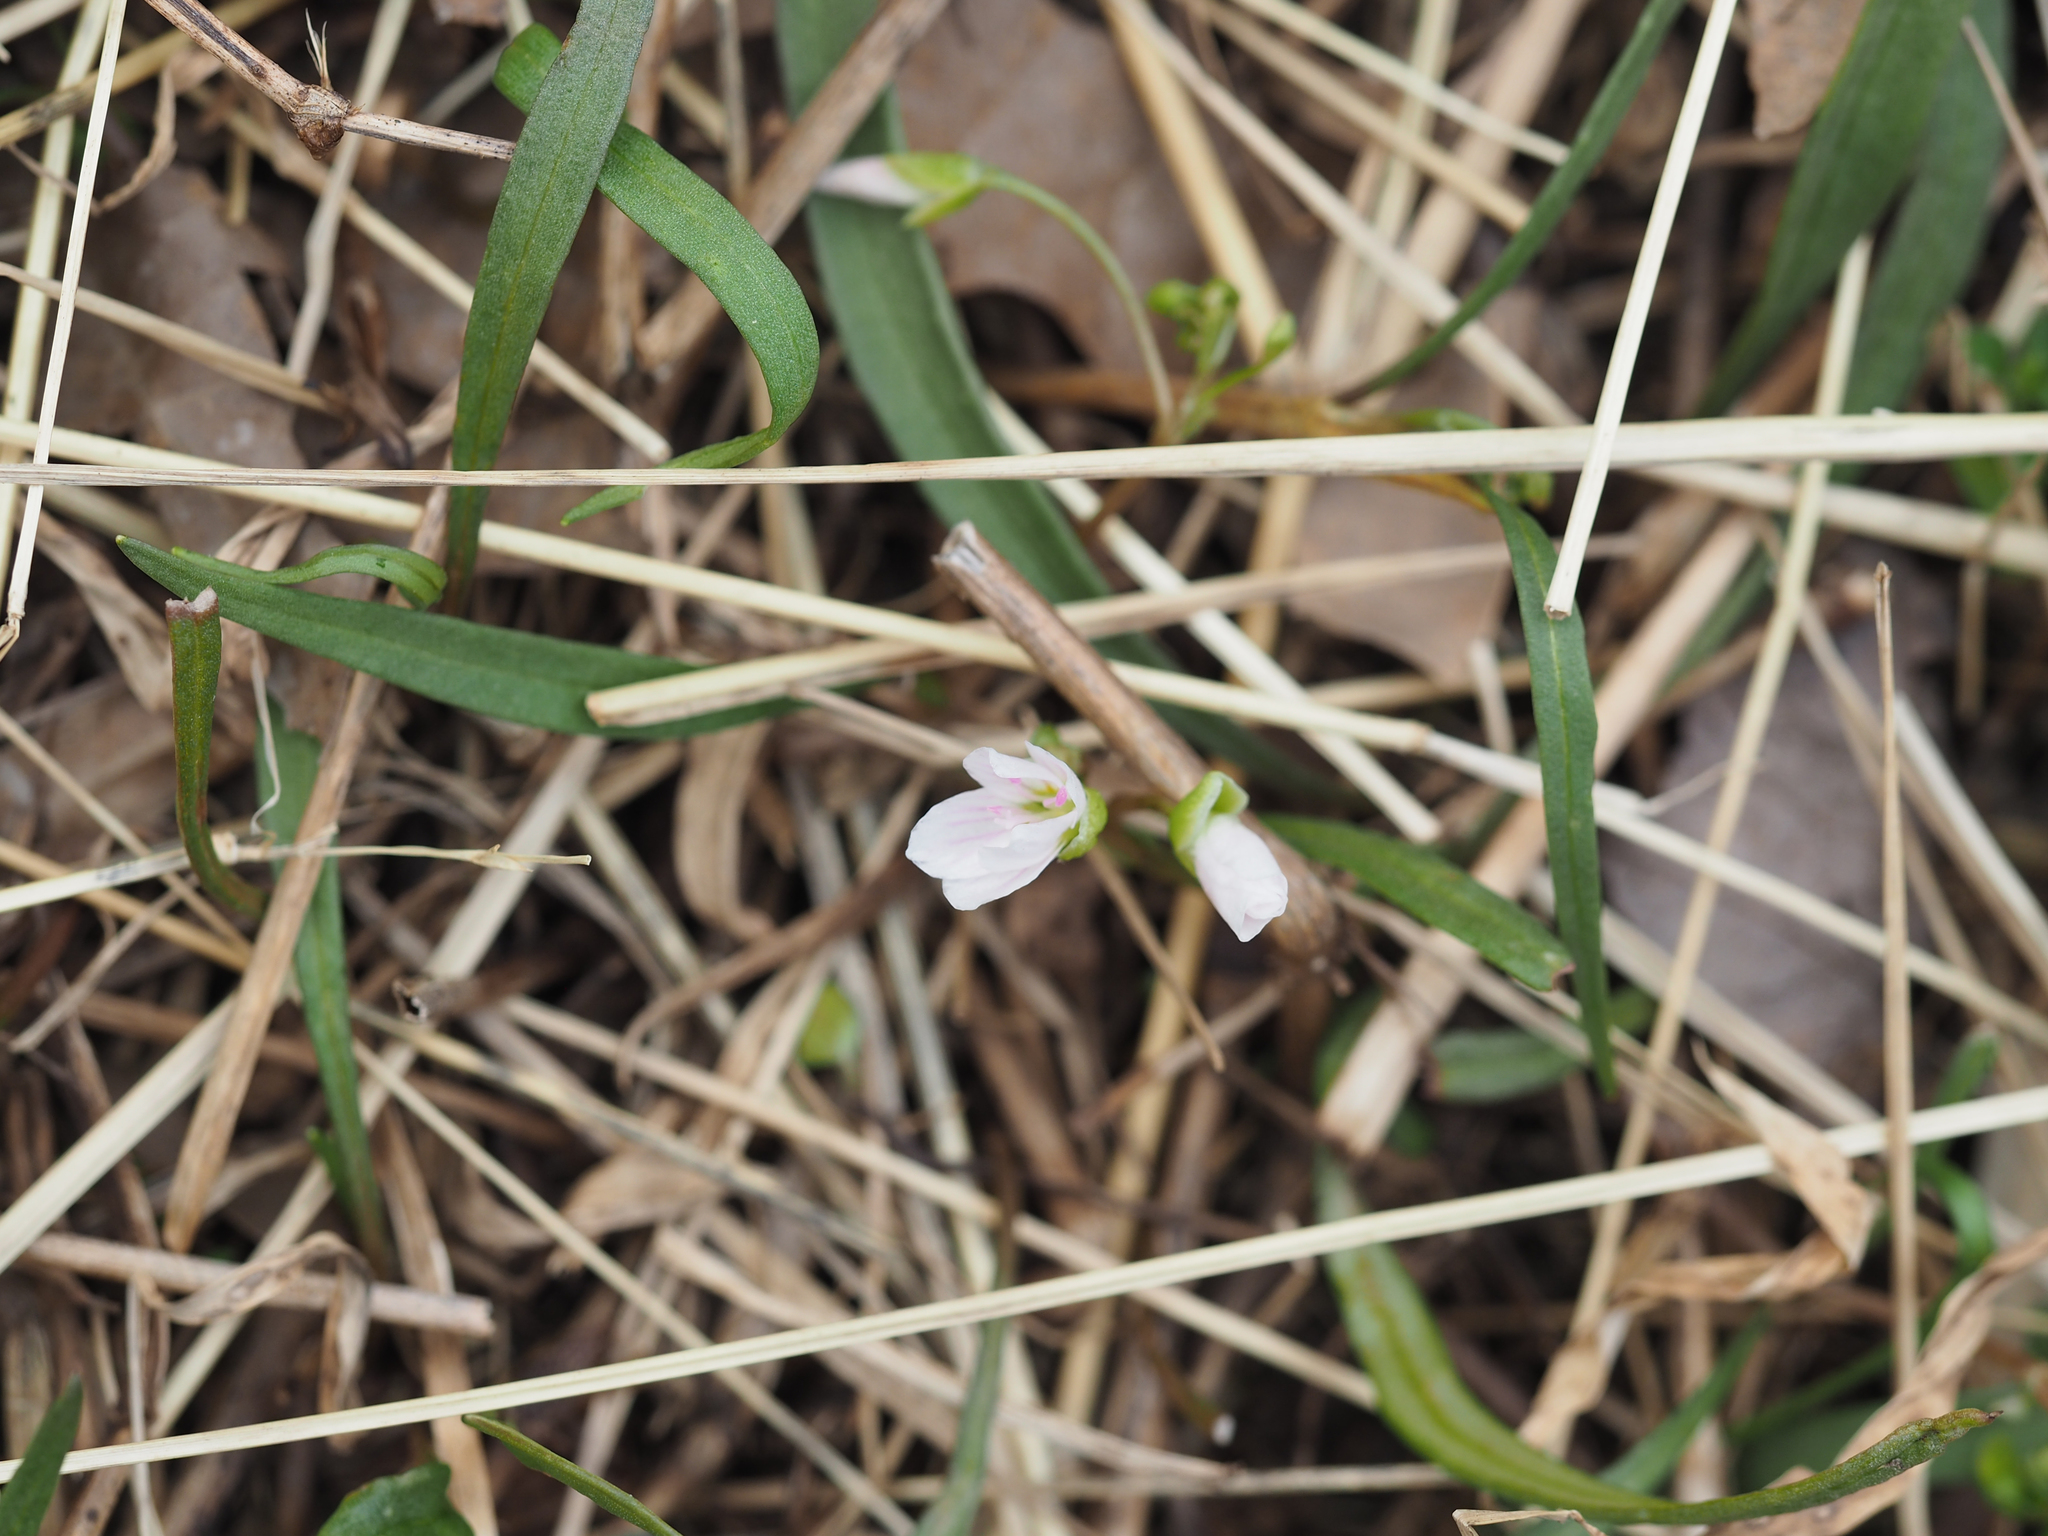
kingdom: Plantae
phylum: Tracheophyta
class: Magnoliopsida
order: Caryophyllales
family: Montiaceae
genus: Claytonia
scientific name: Claytonia virginica
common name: Virginia springbeauty
